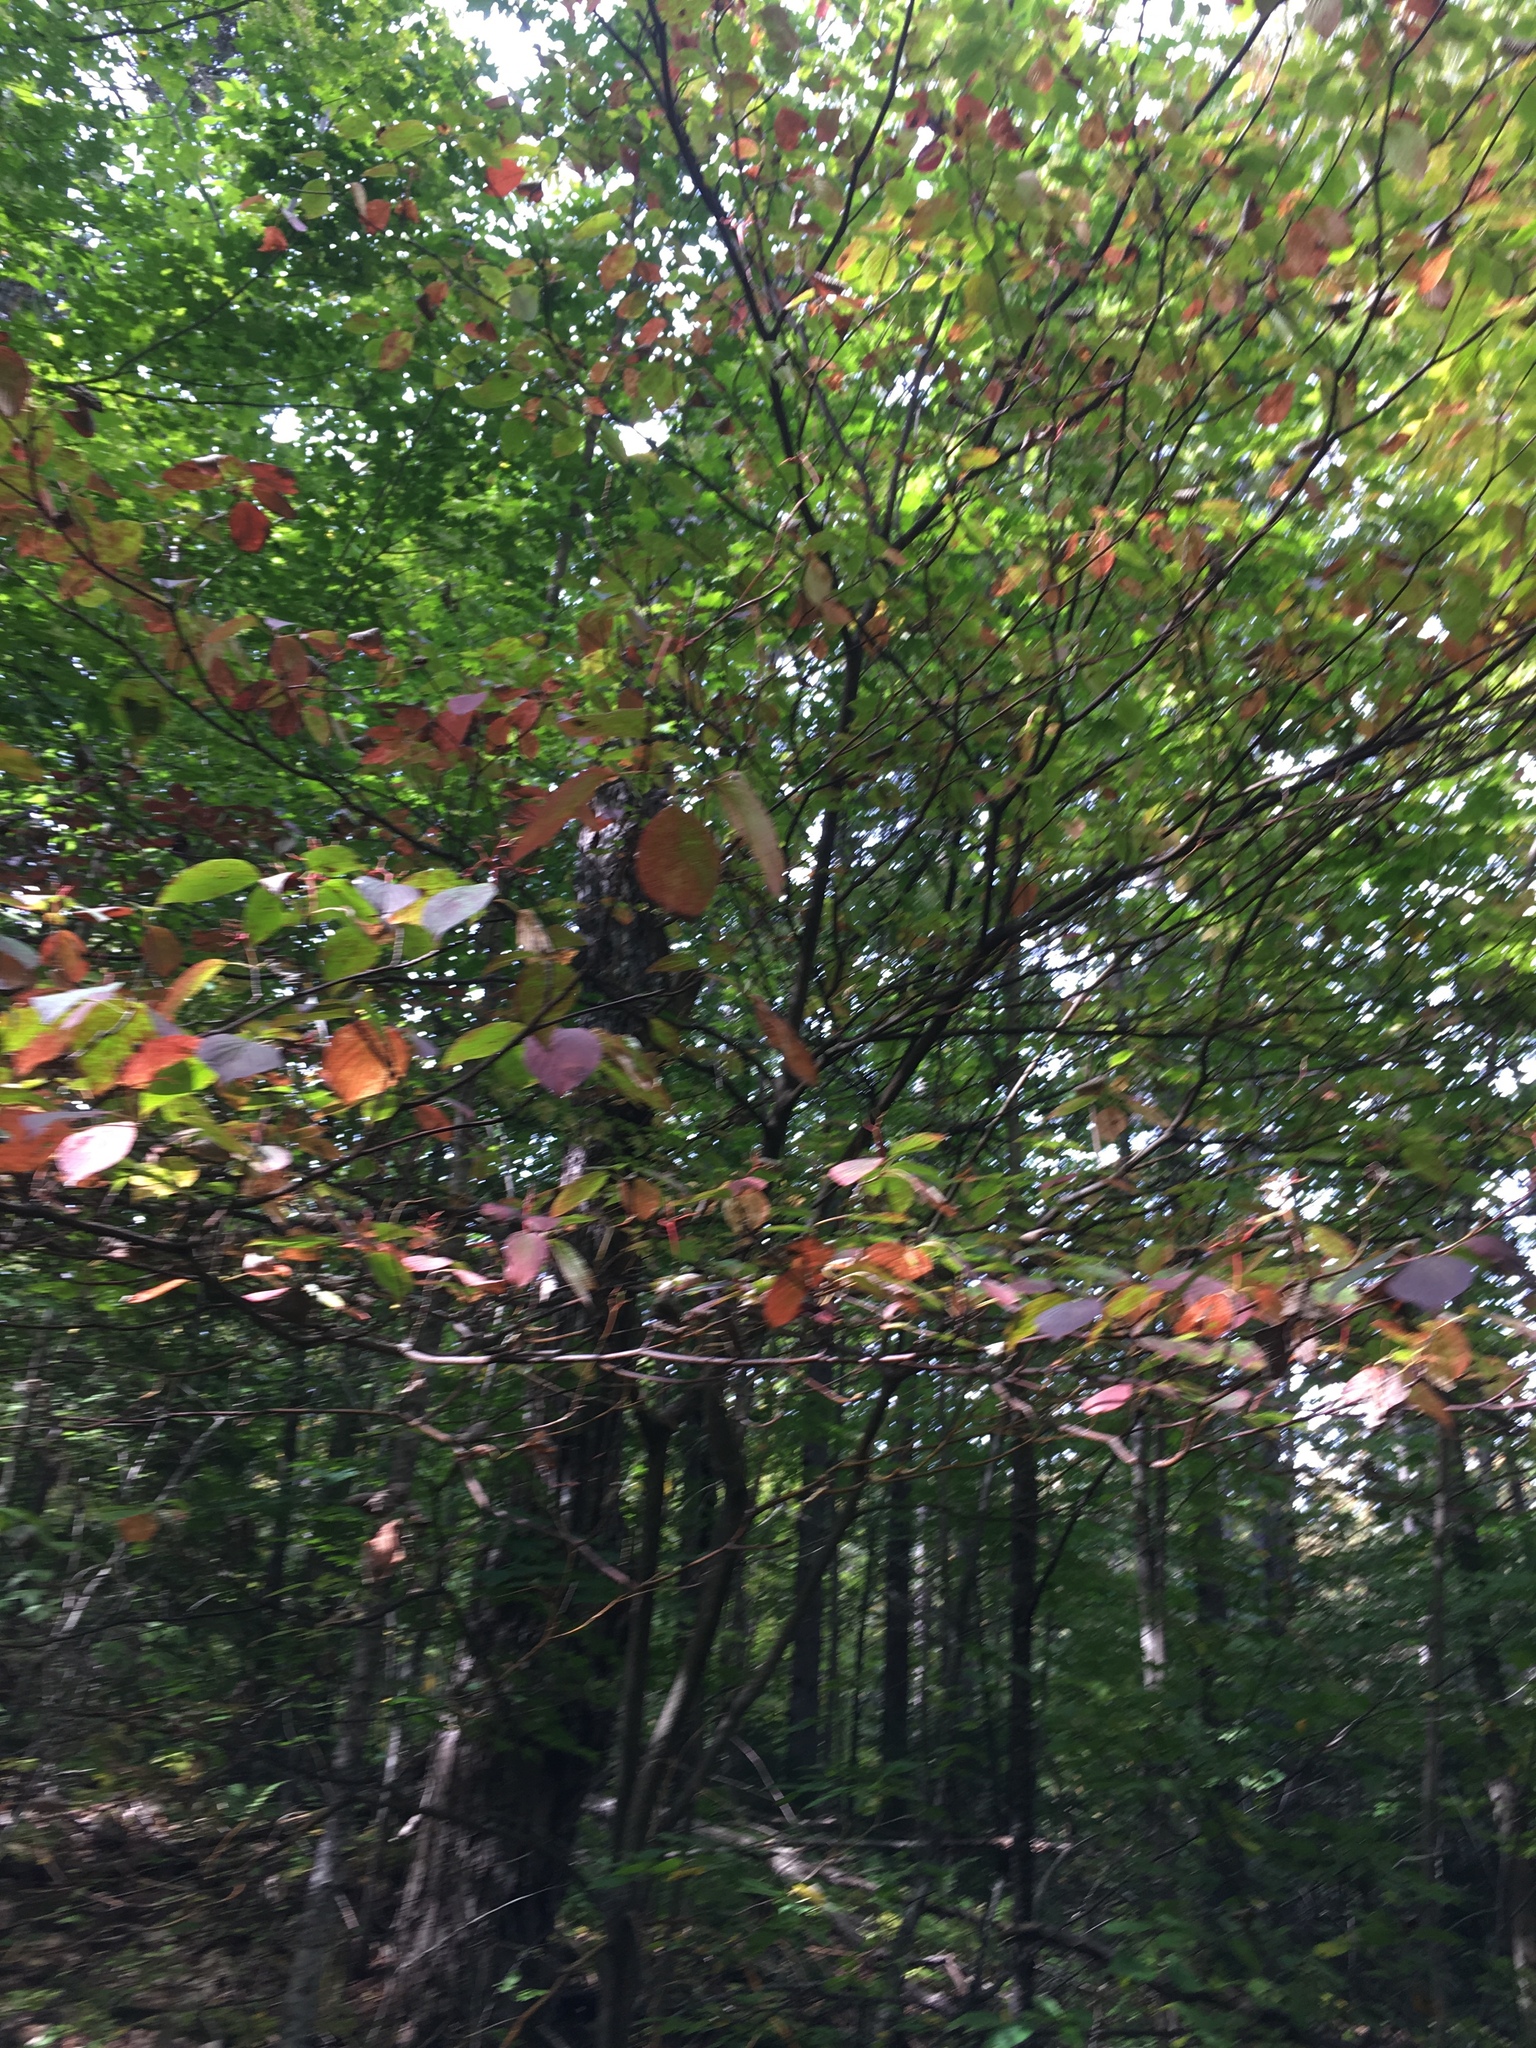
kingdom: Plantae
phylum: Tracheophyta
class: Magnoliopsida
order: Cornales
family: Cornaceae
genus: Cornus
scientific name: Cornus alternifolia
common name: Pagoda dogwood
